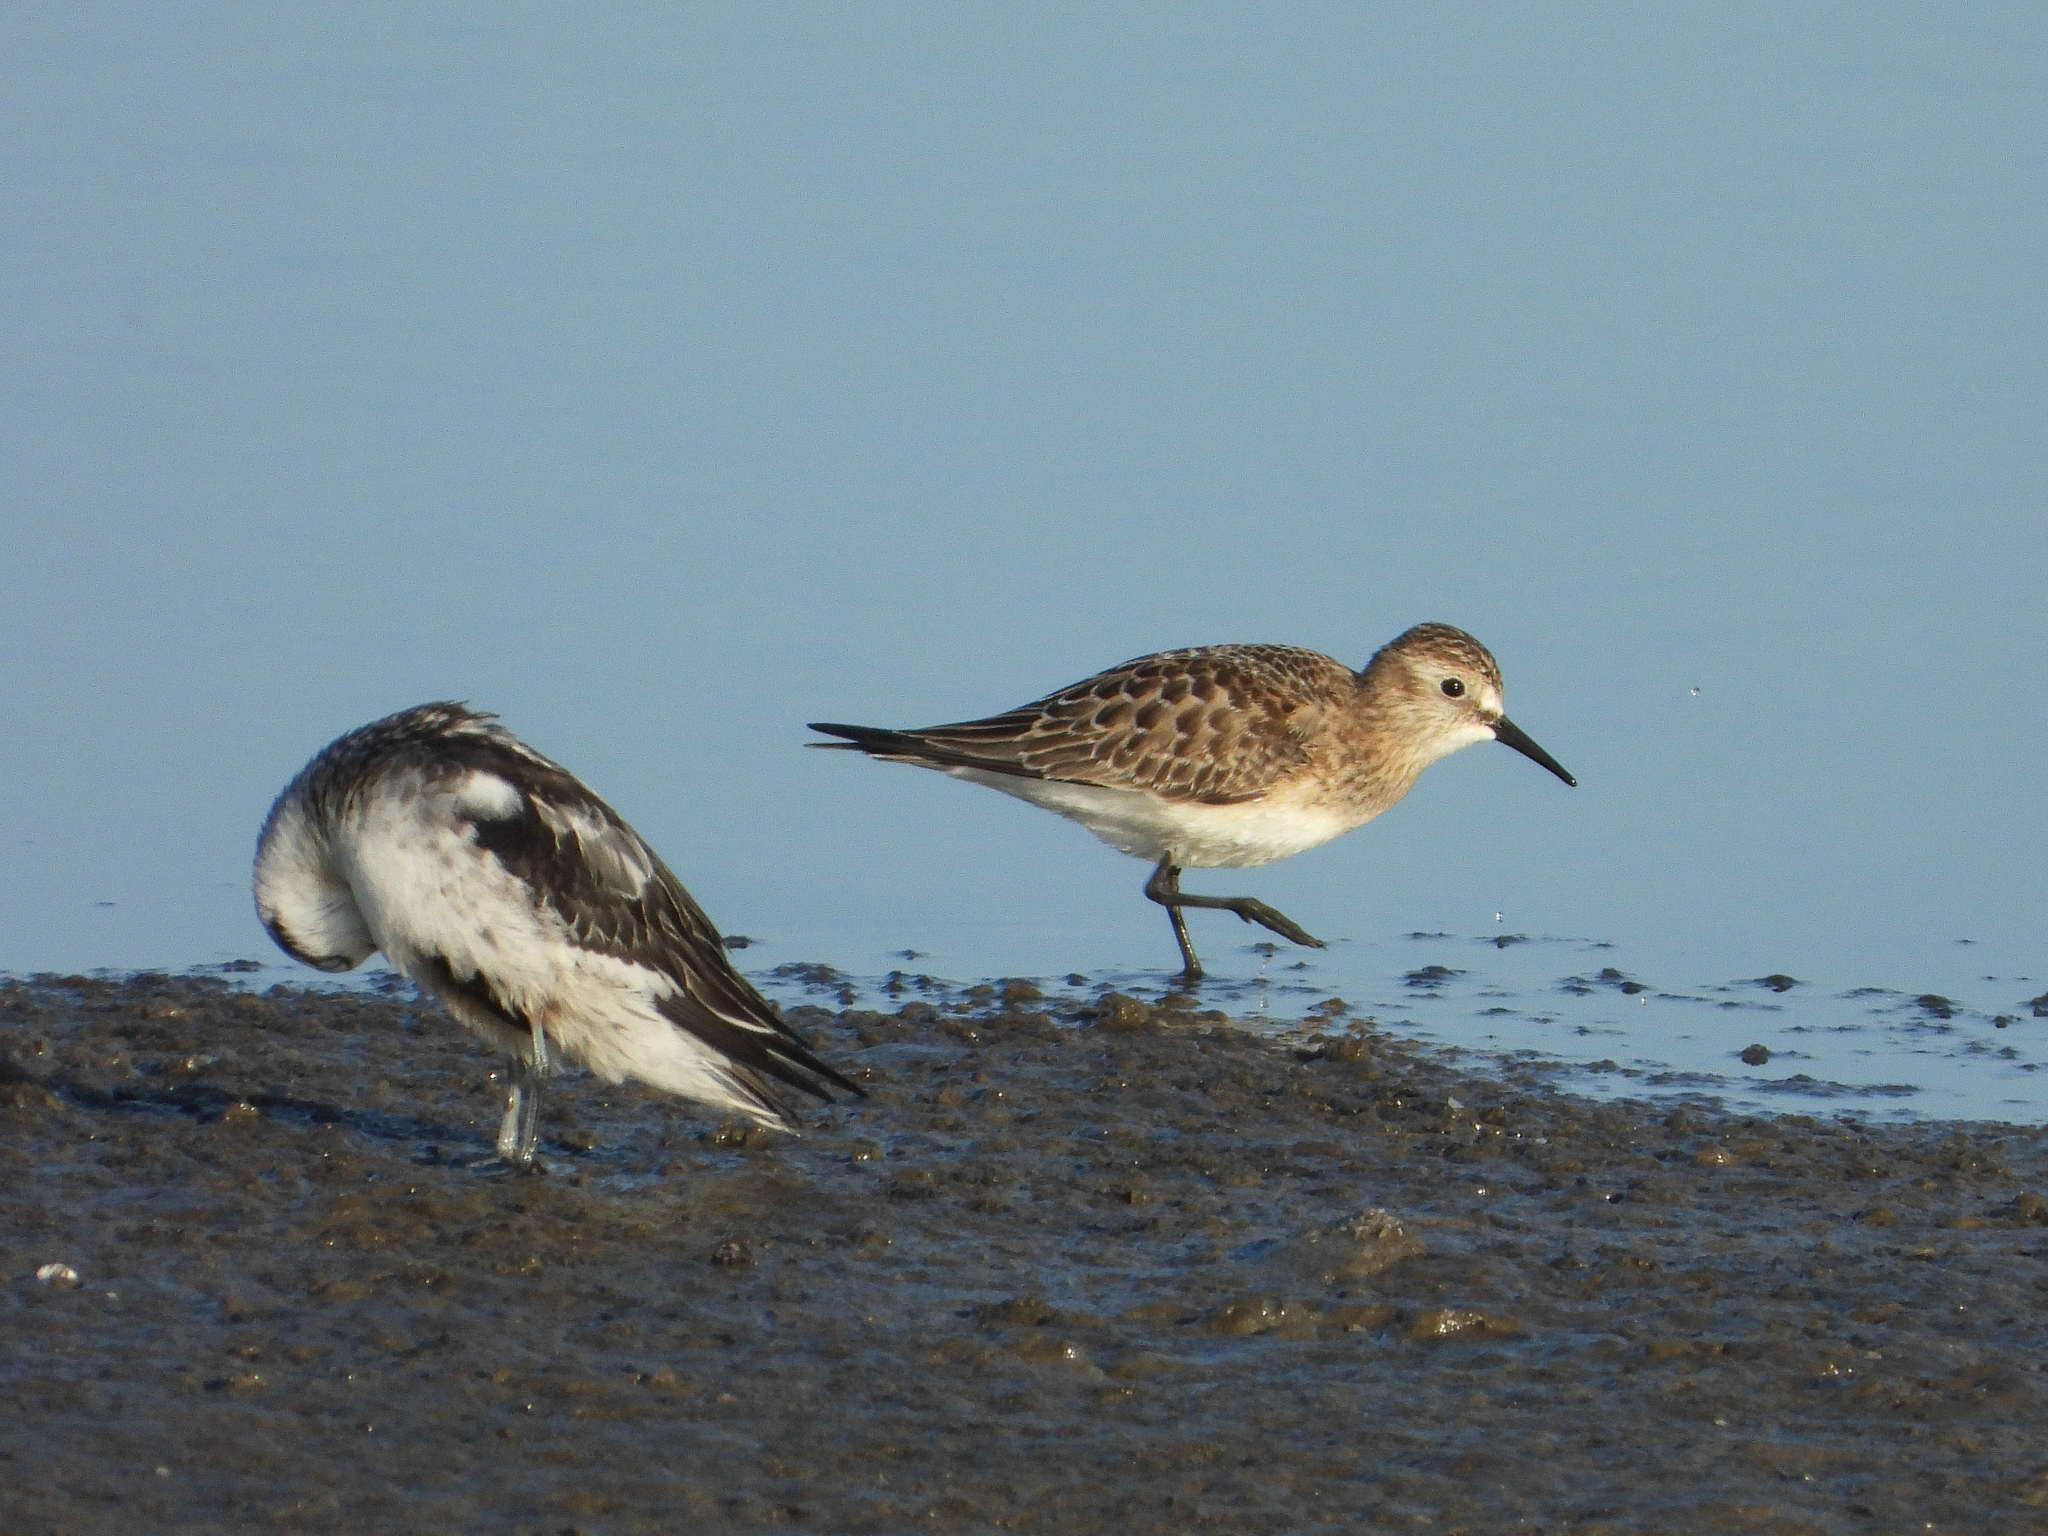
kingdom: Animalia
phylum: Chordata
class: Aves
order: Charadriiformes
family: Scolopacidae
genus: Calidris
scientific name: Calidris bairdii
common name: Baird's sandpiper
